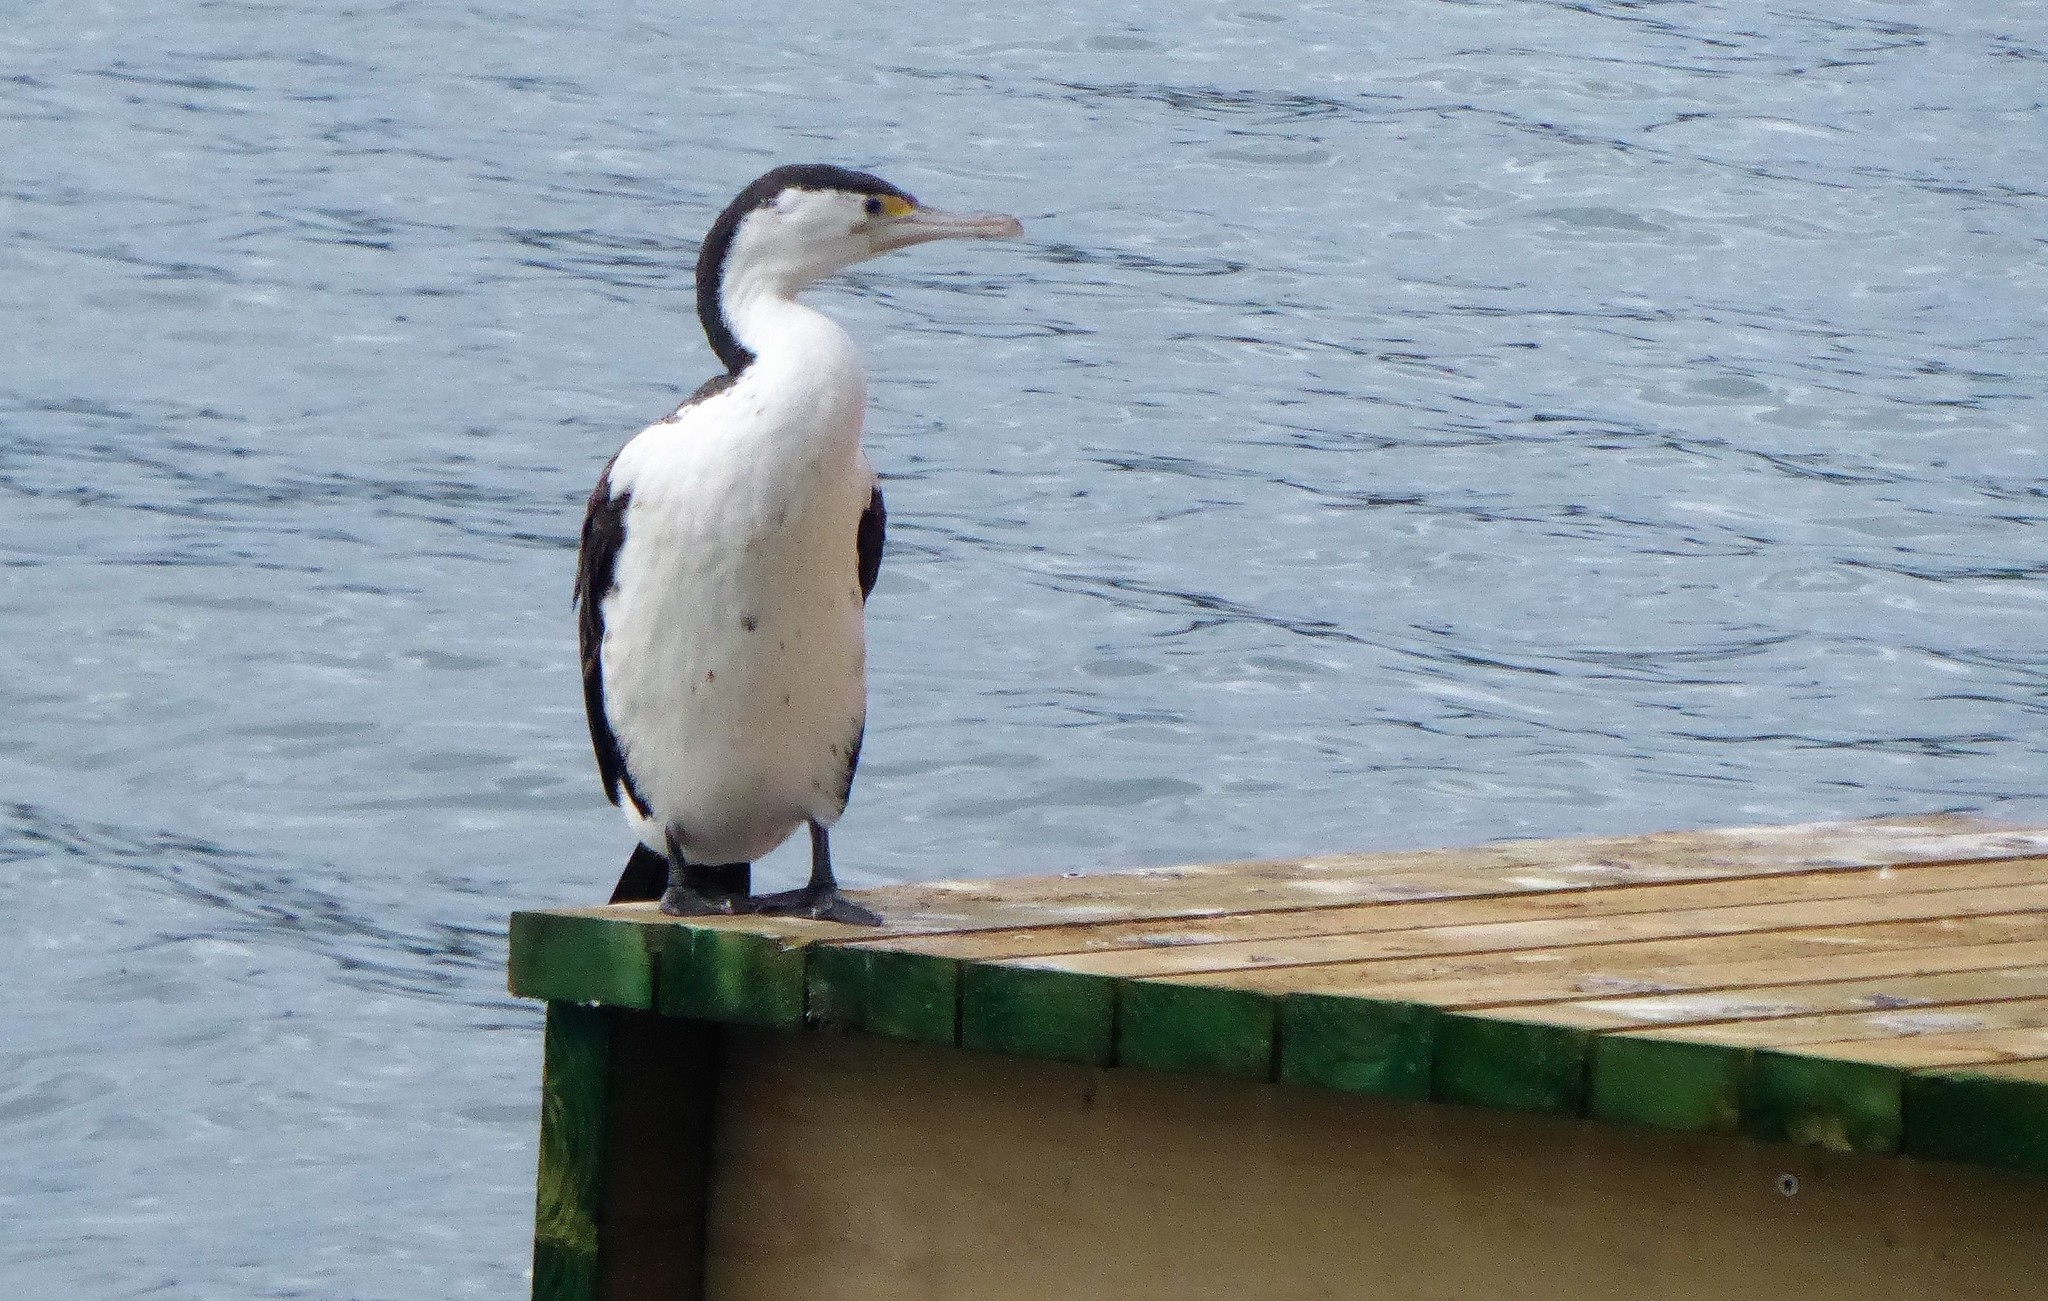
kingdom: Animalia
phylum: Chordata
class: Aves
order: Suliformes
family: Phalacrocoracidae
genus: Phalacrocorax
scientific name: Phalacrocorax varius
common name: Pied cormorant
